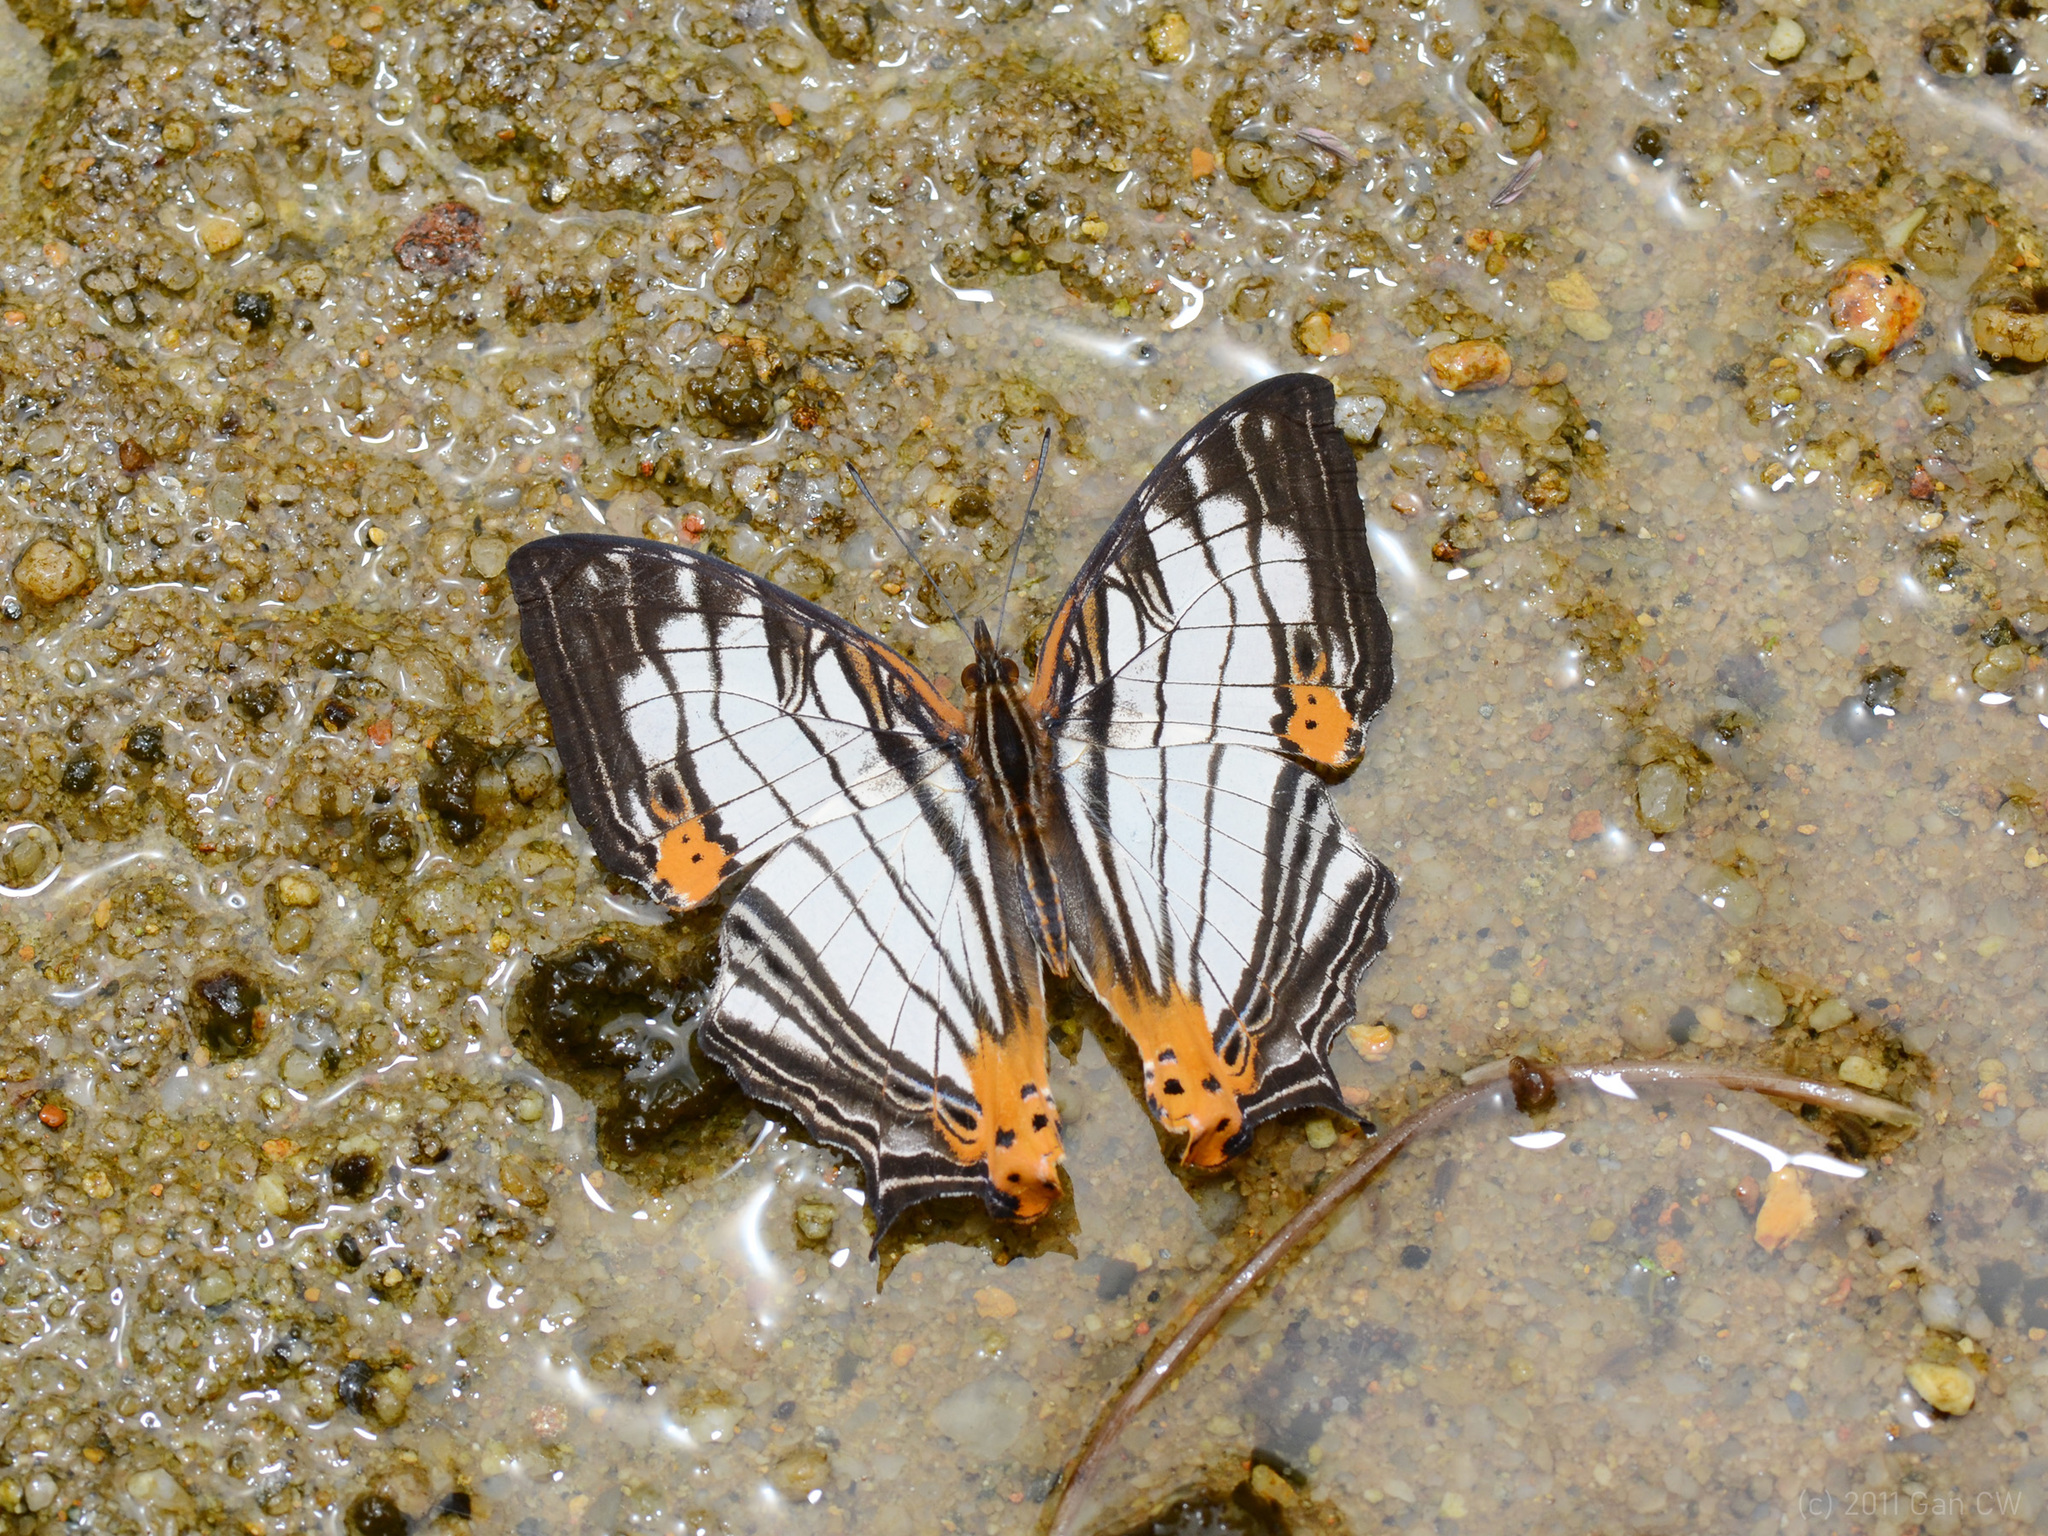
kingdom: Animalia
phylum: Arthropoda
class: Insecta
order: Lepidoptera
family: Nymphalidae
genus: Cyrestis
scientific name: Cyrestis maenalis
